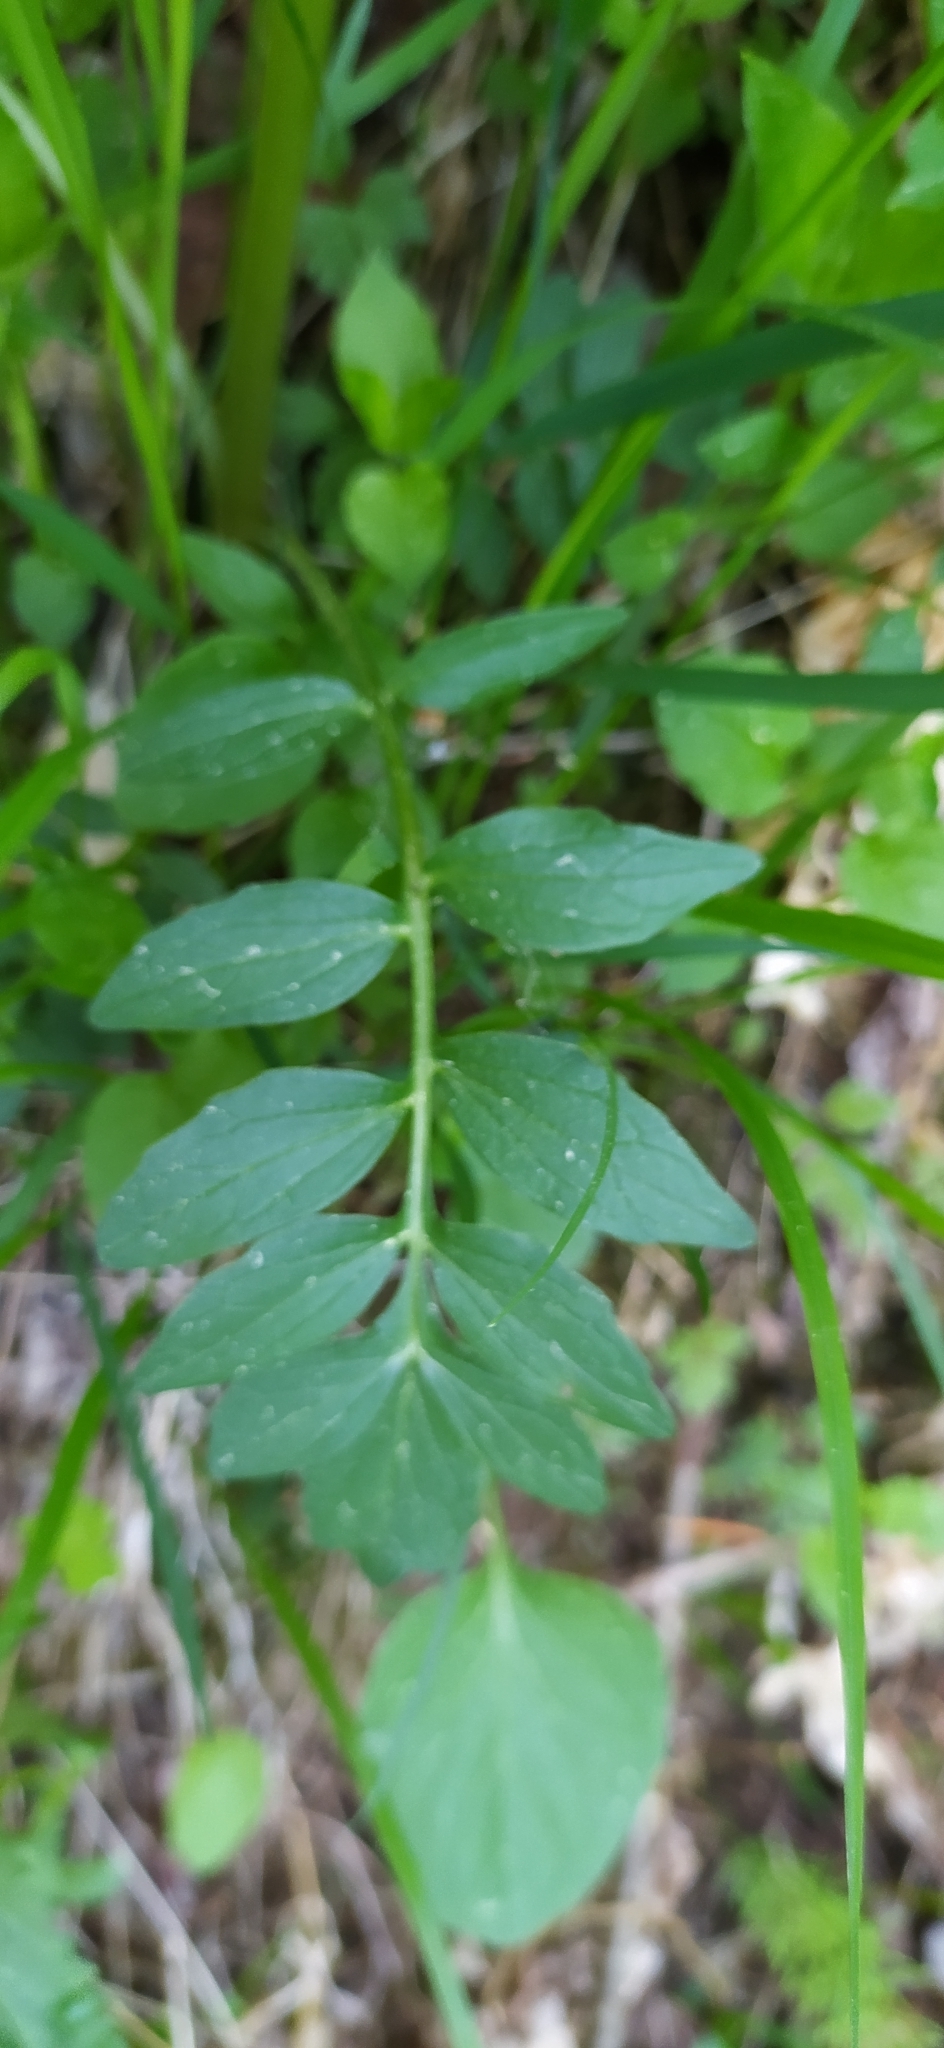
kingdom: Plantae
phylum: Tracheophyta
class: Magnoliopsida
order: Dipsacales
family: Caprifoliaceae
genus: Valeriana
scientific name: Valeriana wolgensis
